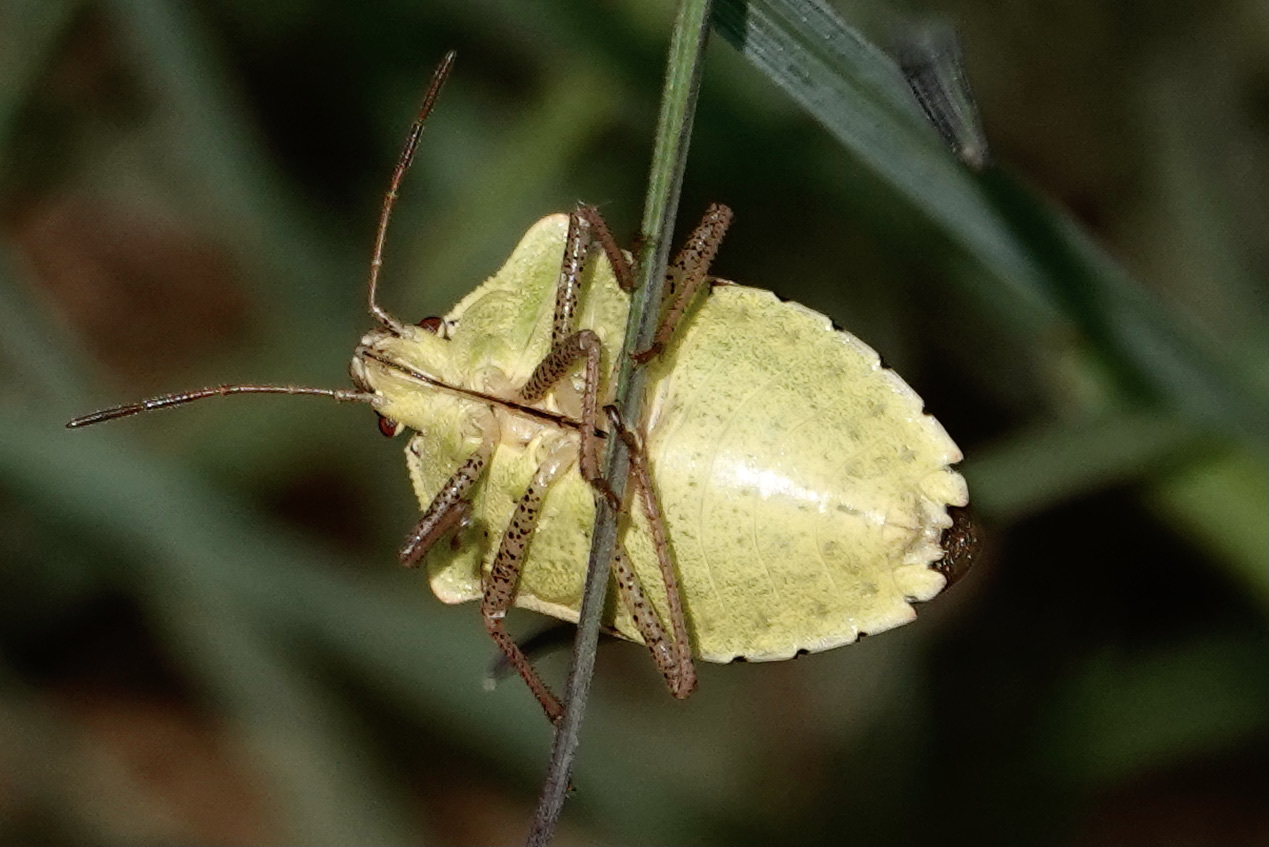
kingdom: Animalia
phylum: Arthropoda
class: Insecta
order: Hemiptera
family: Pentatomidae
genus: Euschistus
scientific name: Euschistus servus
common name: Brown stink bug
